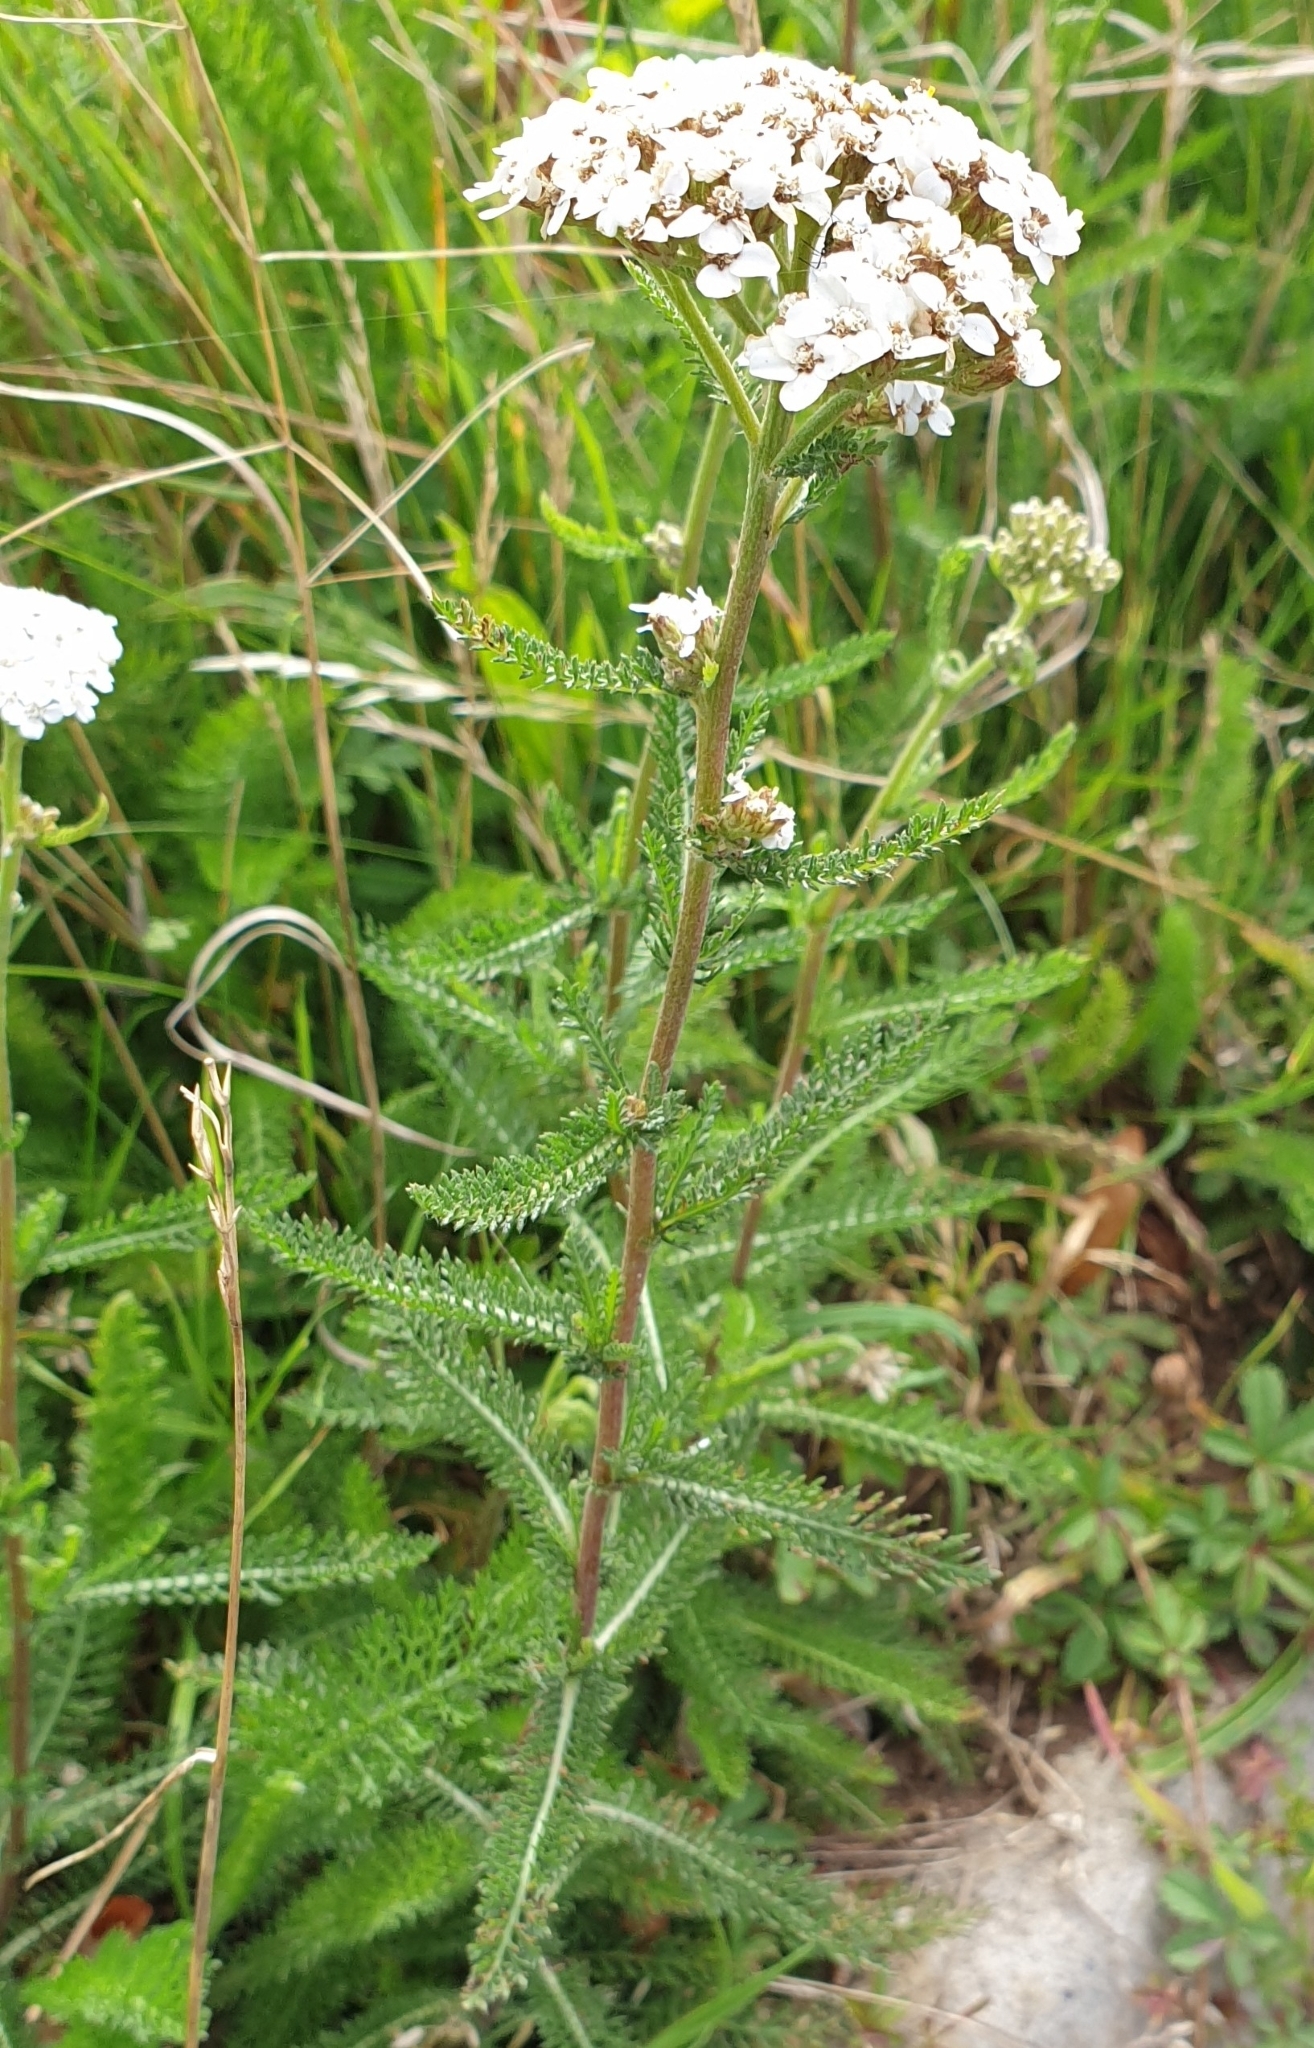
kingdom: Plantae
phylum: Tracheophyta
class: Magnoliopsida
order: Asterales
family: Asteraceae
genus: Achillea
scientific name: Achillea millefolium
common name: Yarrow
